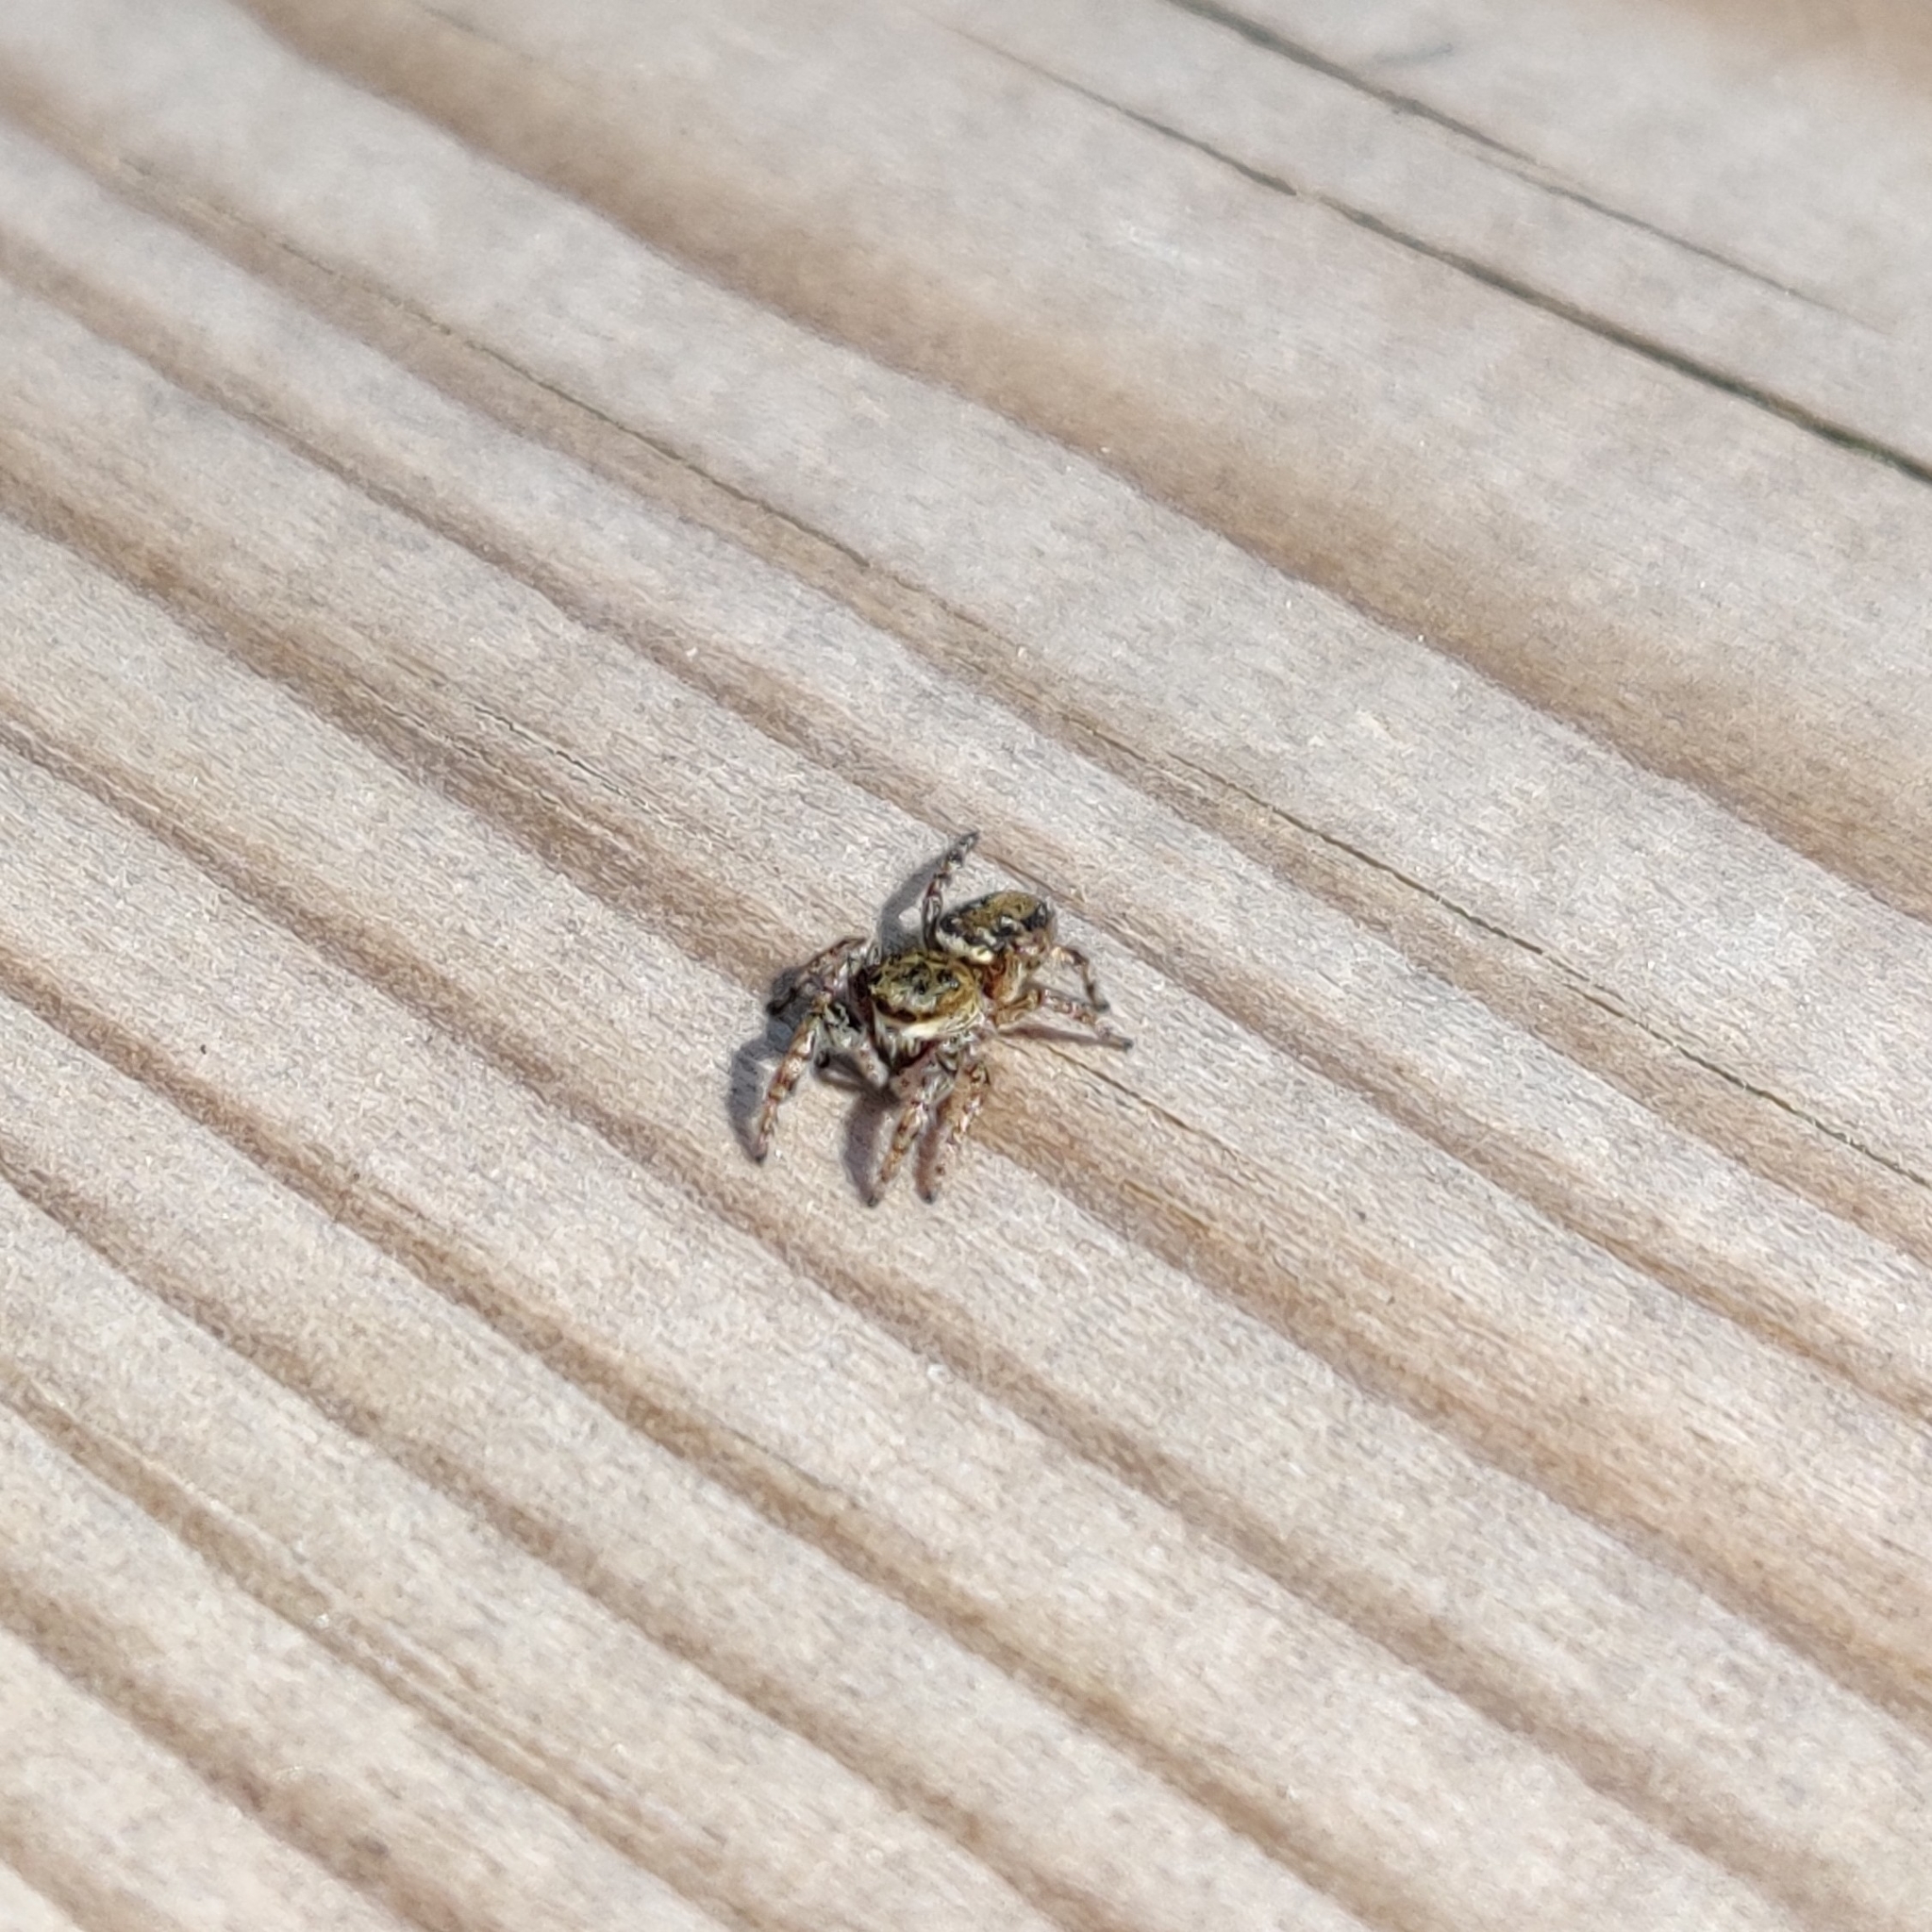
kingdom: Animalia
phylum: Arthropoda
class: Arachnida
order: Araneae
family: Salticidae
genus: Dendryphantes
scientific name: Dendryphantes rudis
